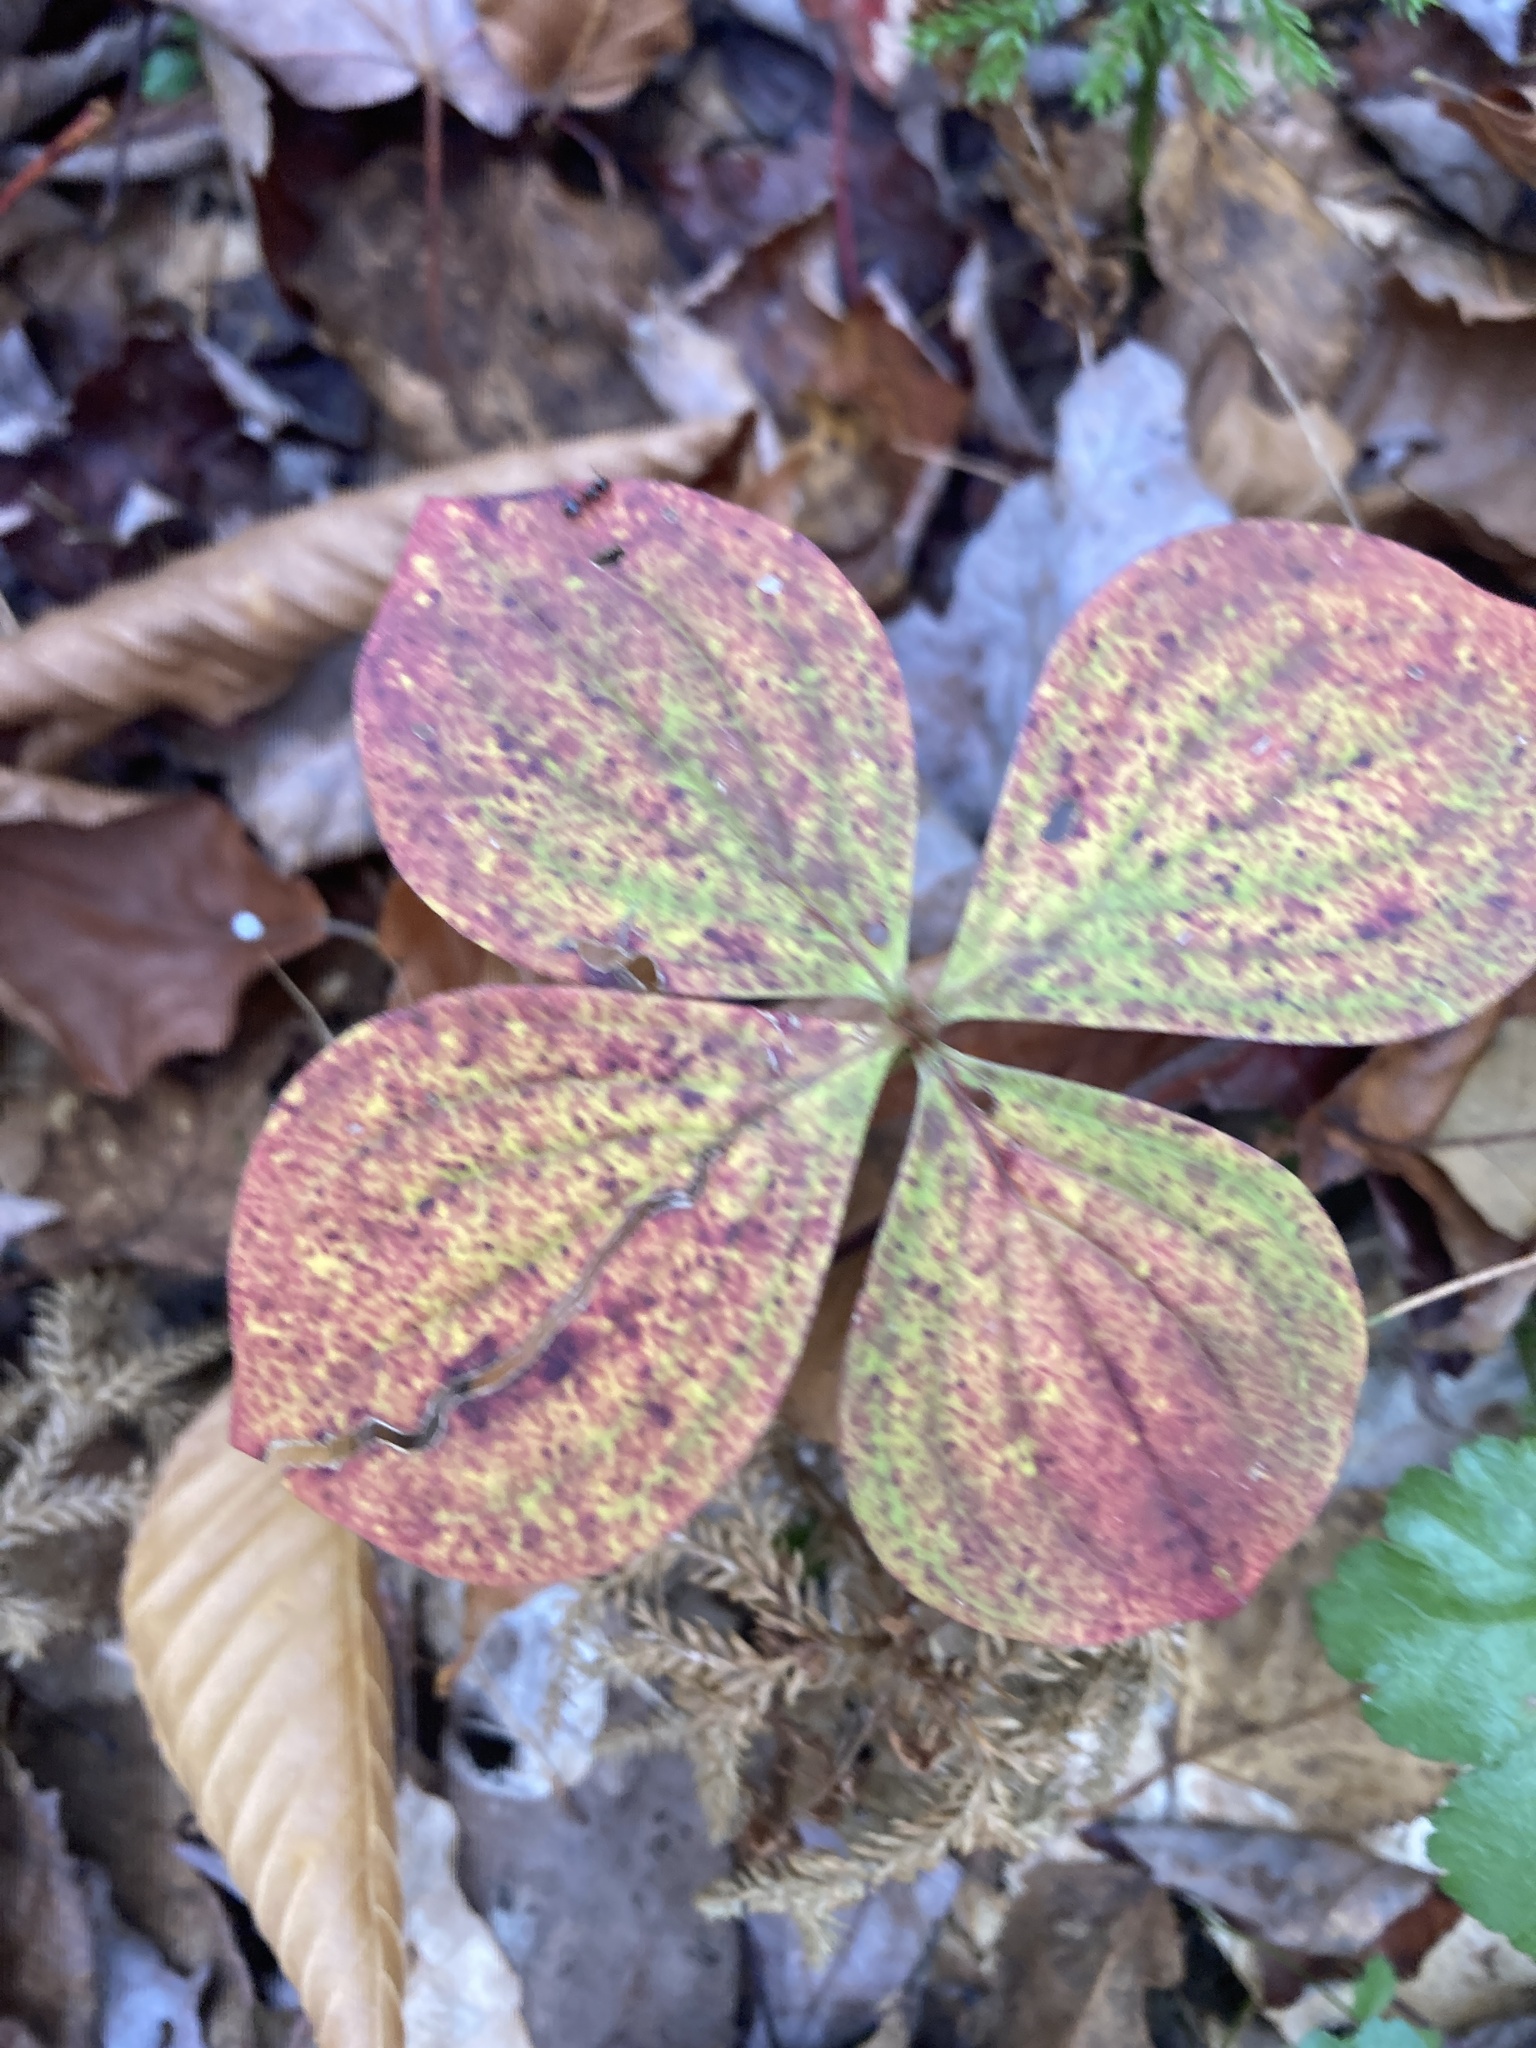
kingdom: Plantae
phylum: Tracheophyta
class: Magnoliopsida
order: Cornales
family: Cornaceae
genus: Cornus
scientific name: Cornus canadensis
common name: Creeping dogwood
